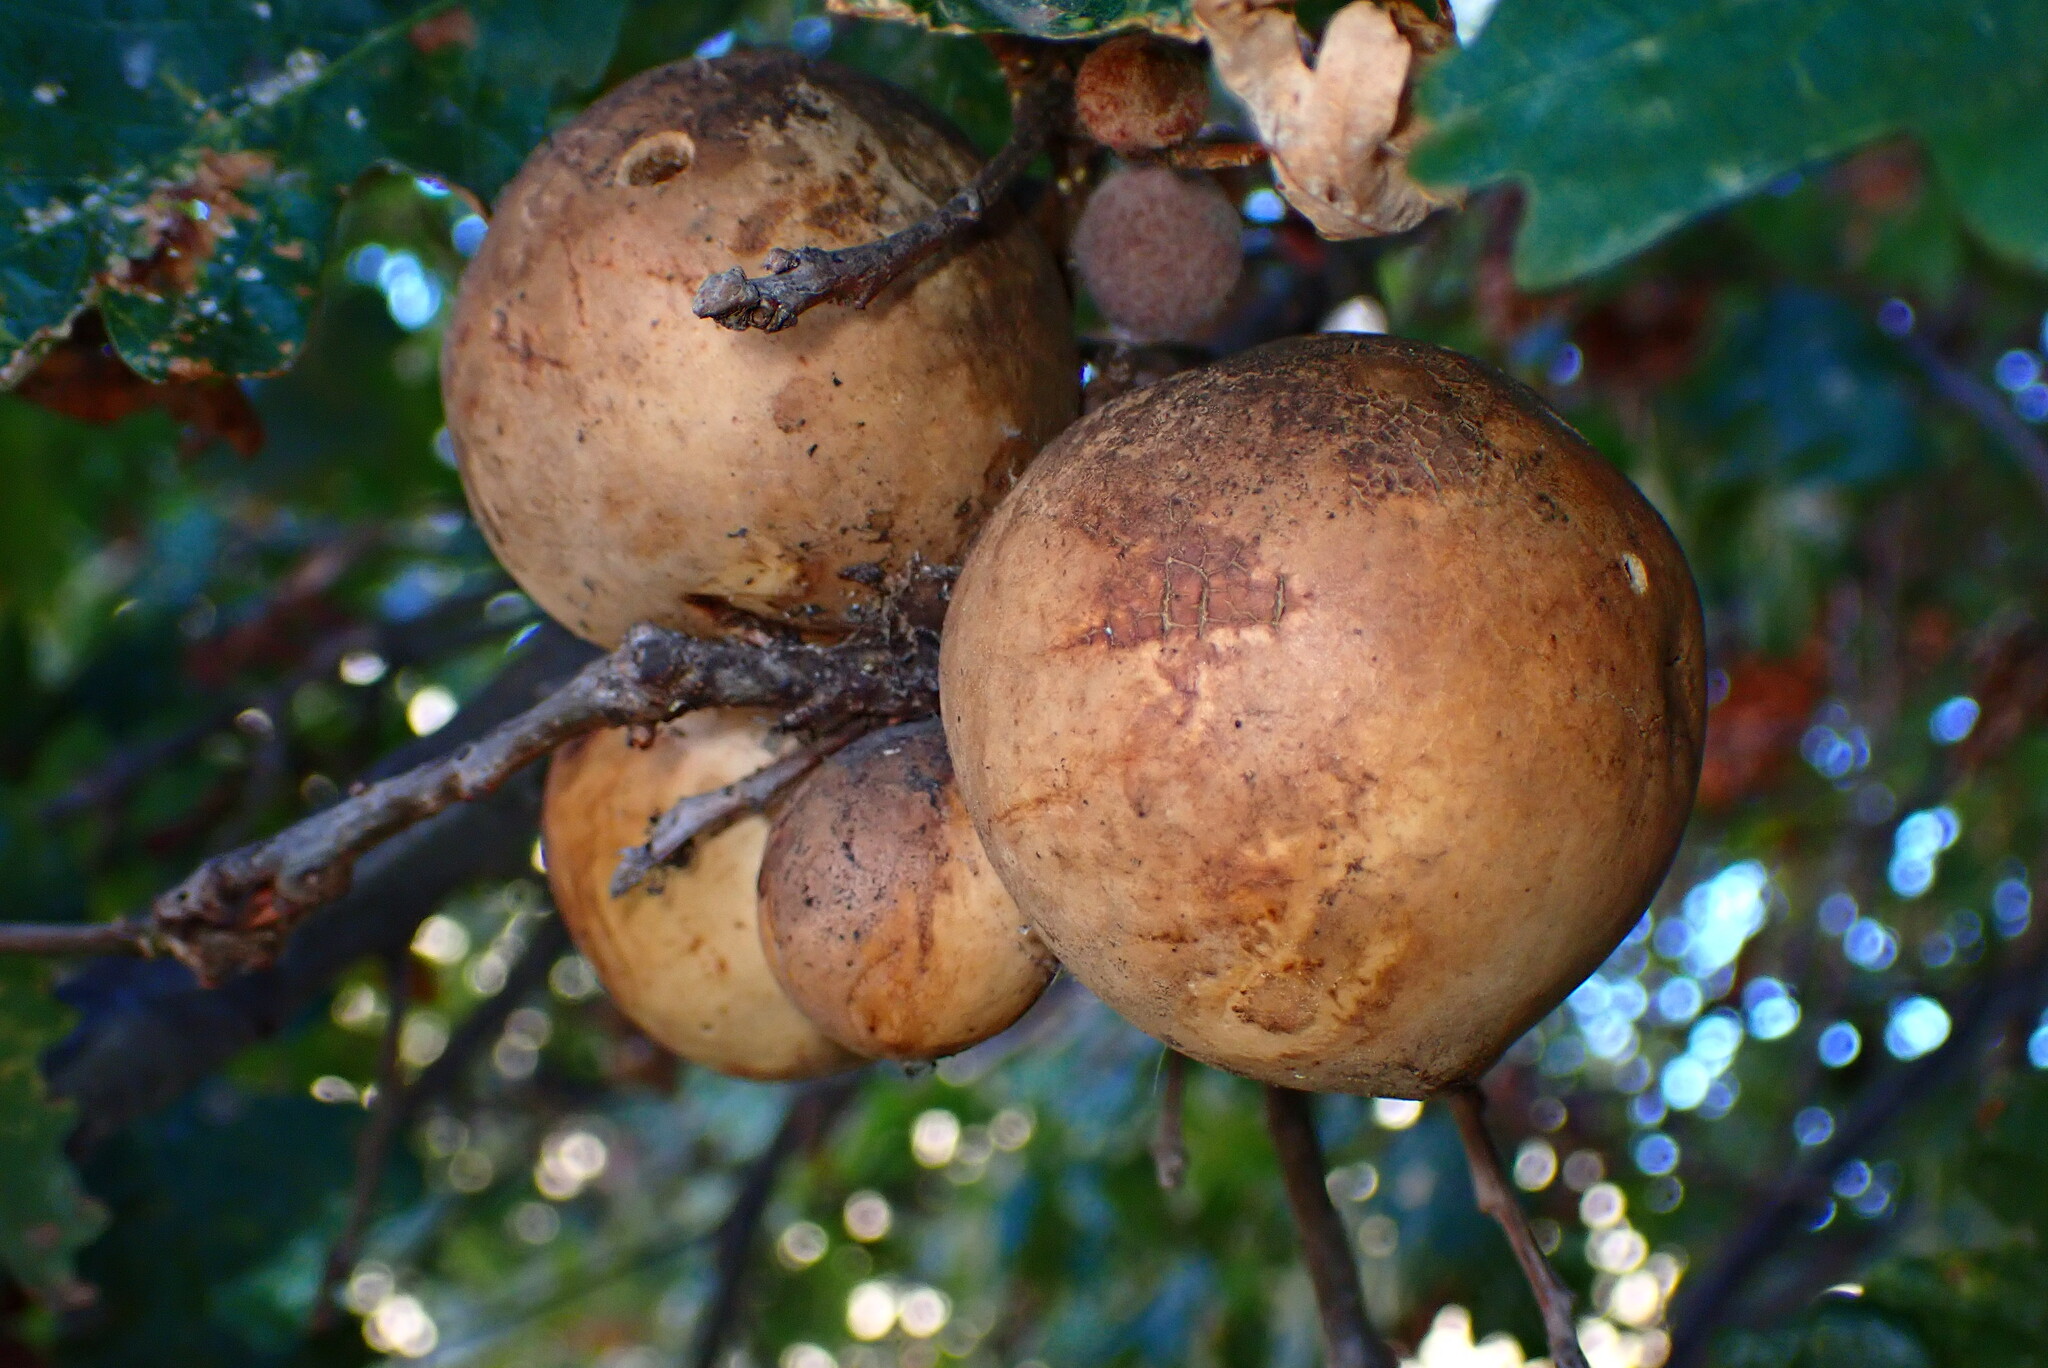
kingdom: Animalia
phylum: Arthropoda
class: Insecta
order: Hymenoptera
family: Cynipidae
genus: Andricus
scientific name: Andricus quercuscalifornicus
